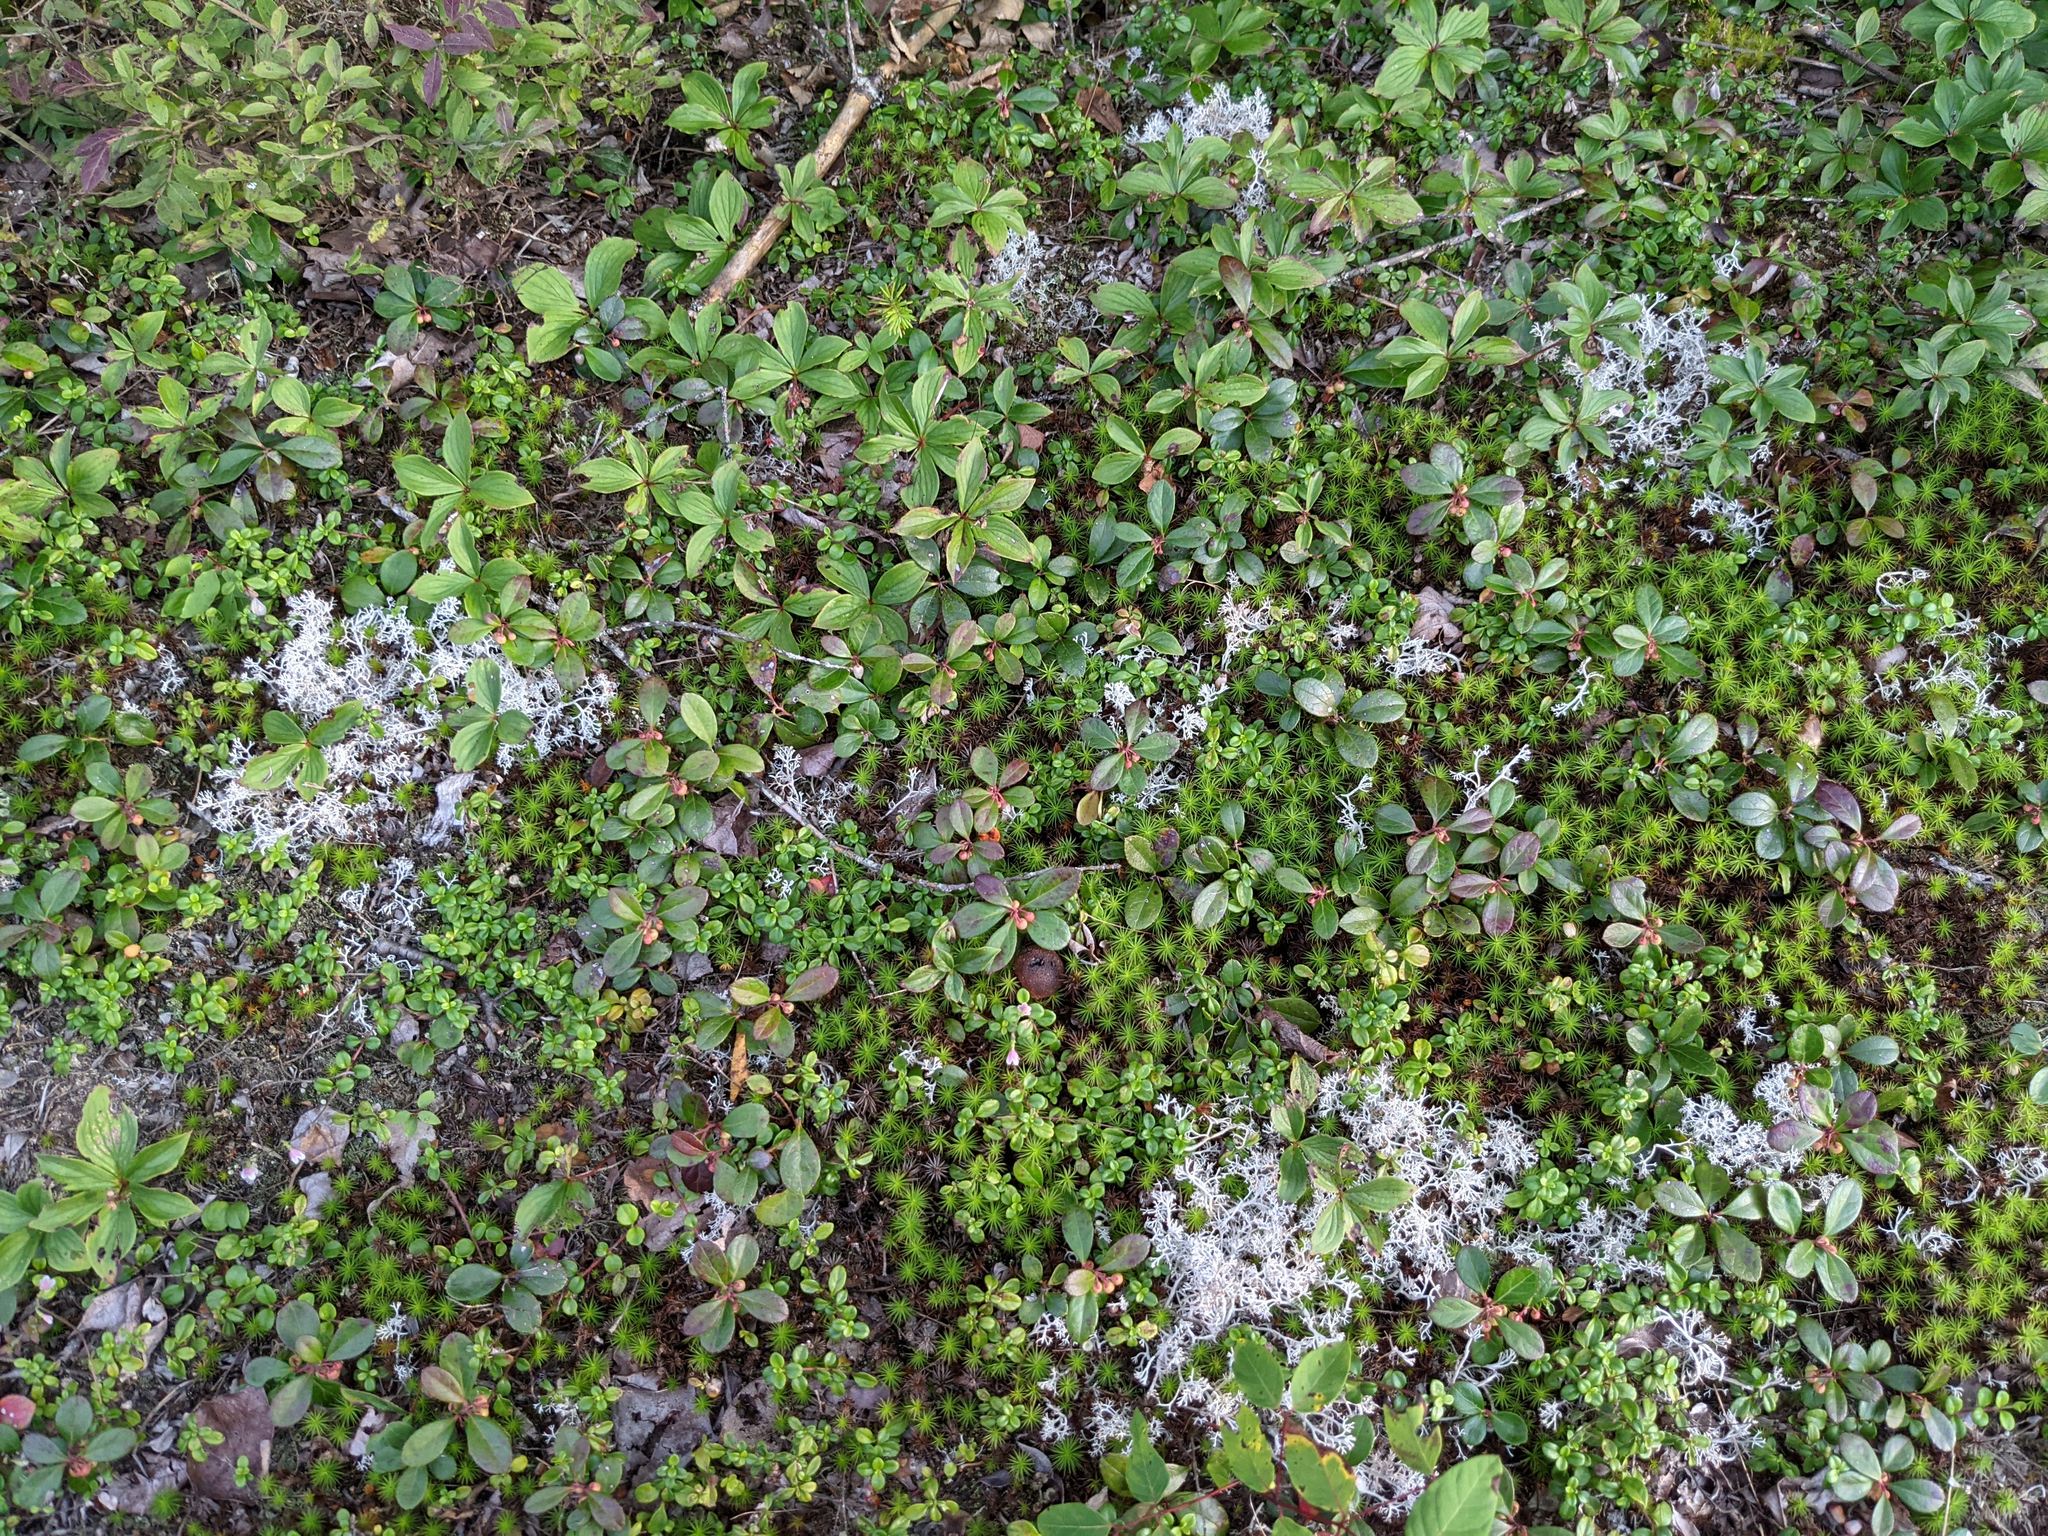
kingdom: Plantae
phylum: Tracheophyta
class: Magnoliopsida
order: Cornales
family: Cornaceae
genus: Cornus
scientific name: Cornus canadensis
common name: Creeping dogwood
